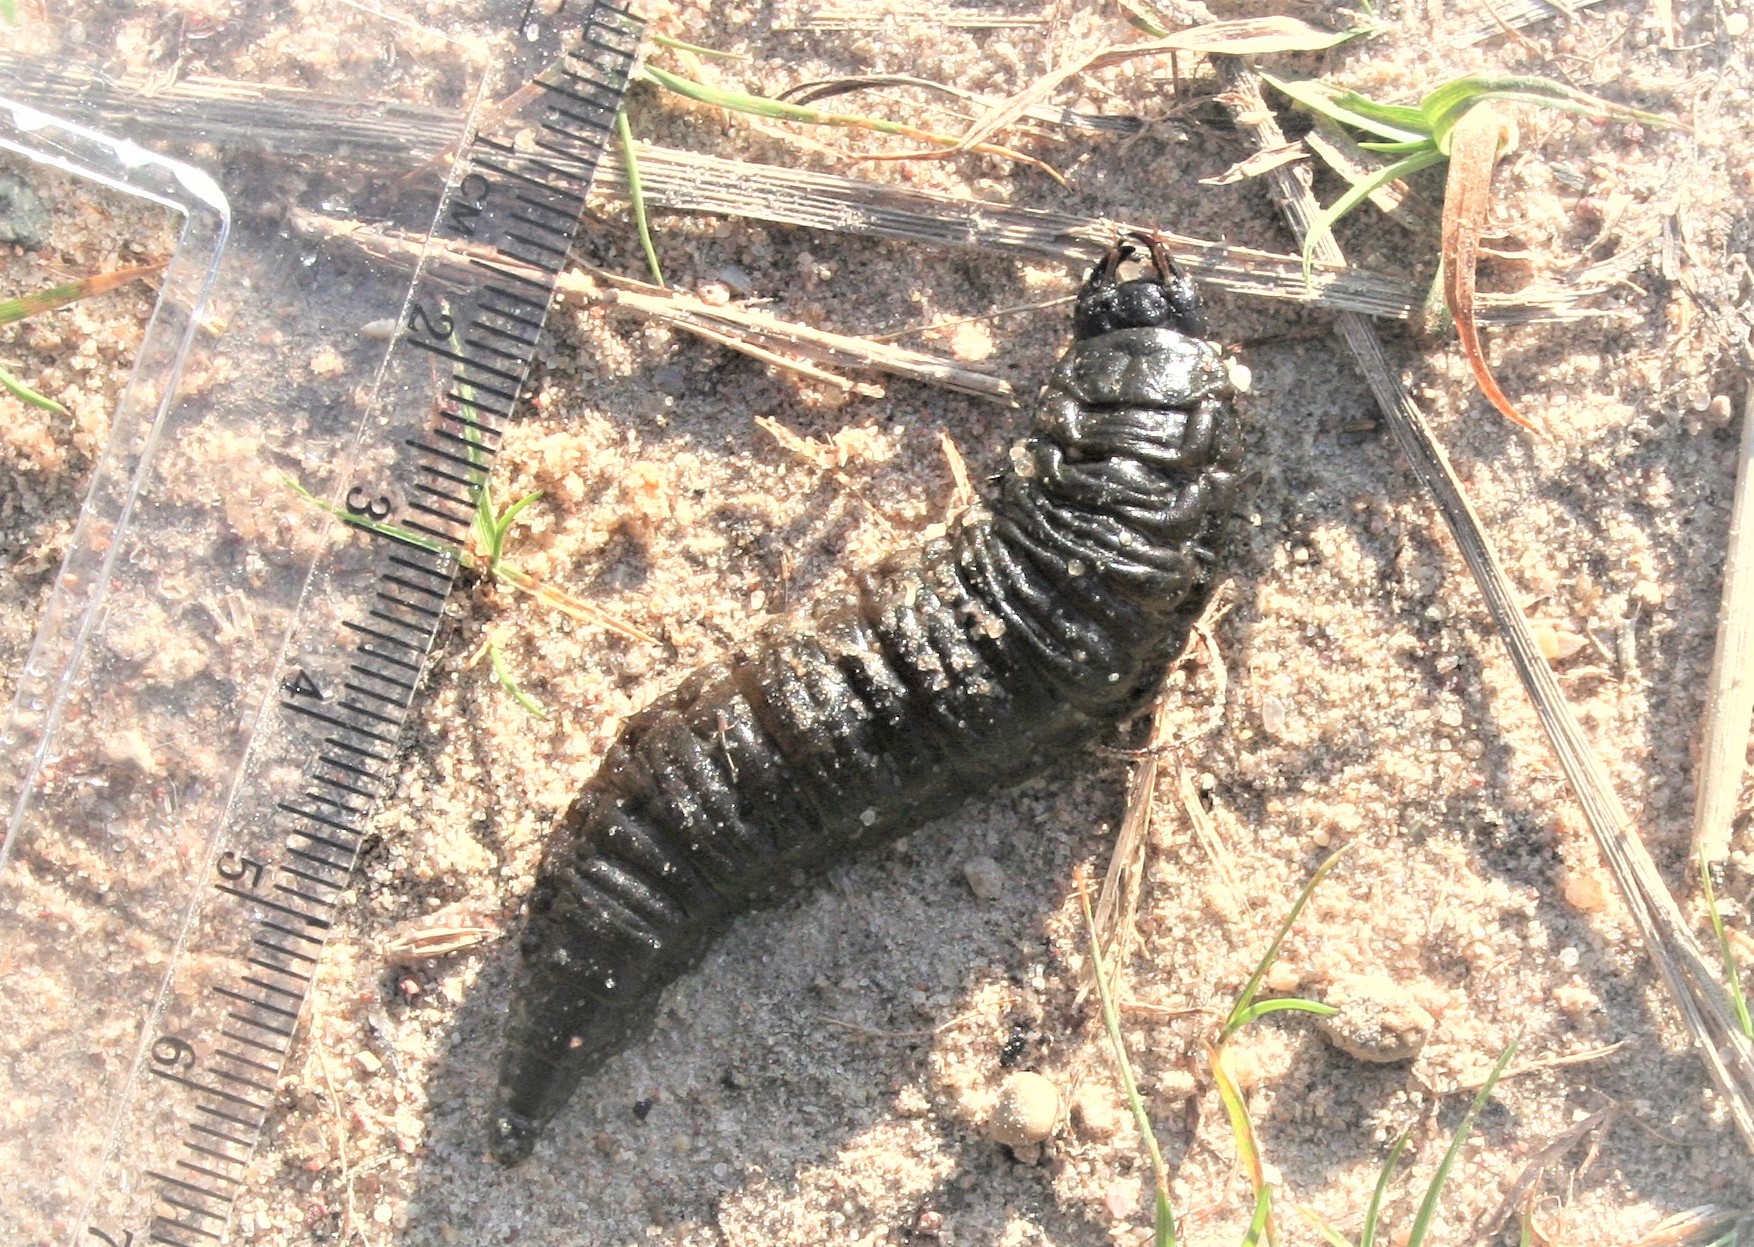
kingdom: Animalia
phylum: Arthropoda
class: Insecta
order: Coleoptera
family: Hydrophilidae
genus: Hydrophilus
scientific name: Hydrophilus
